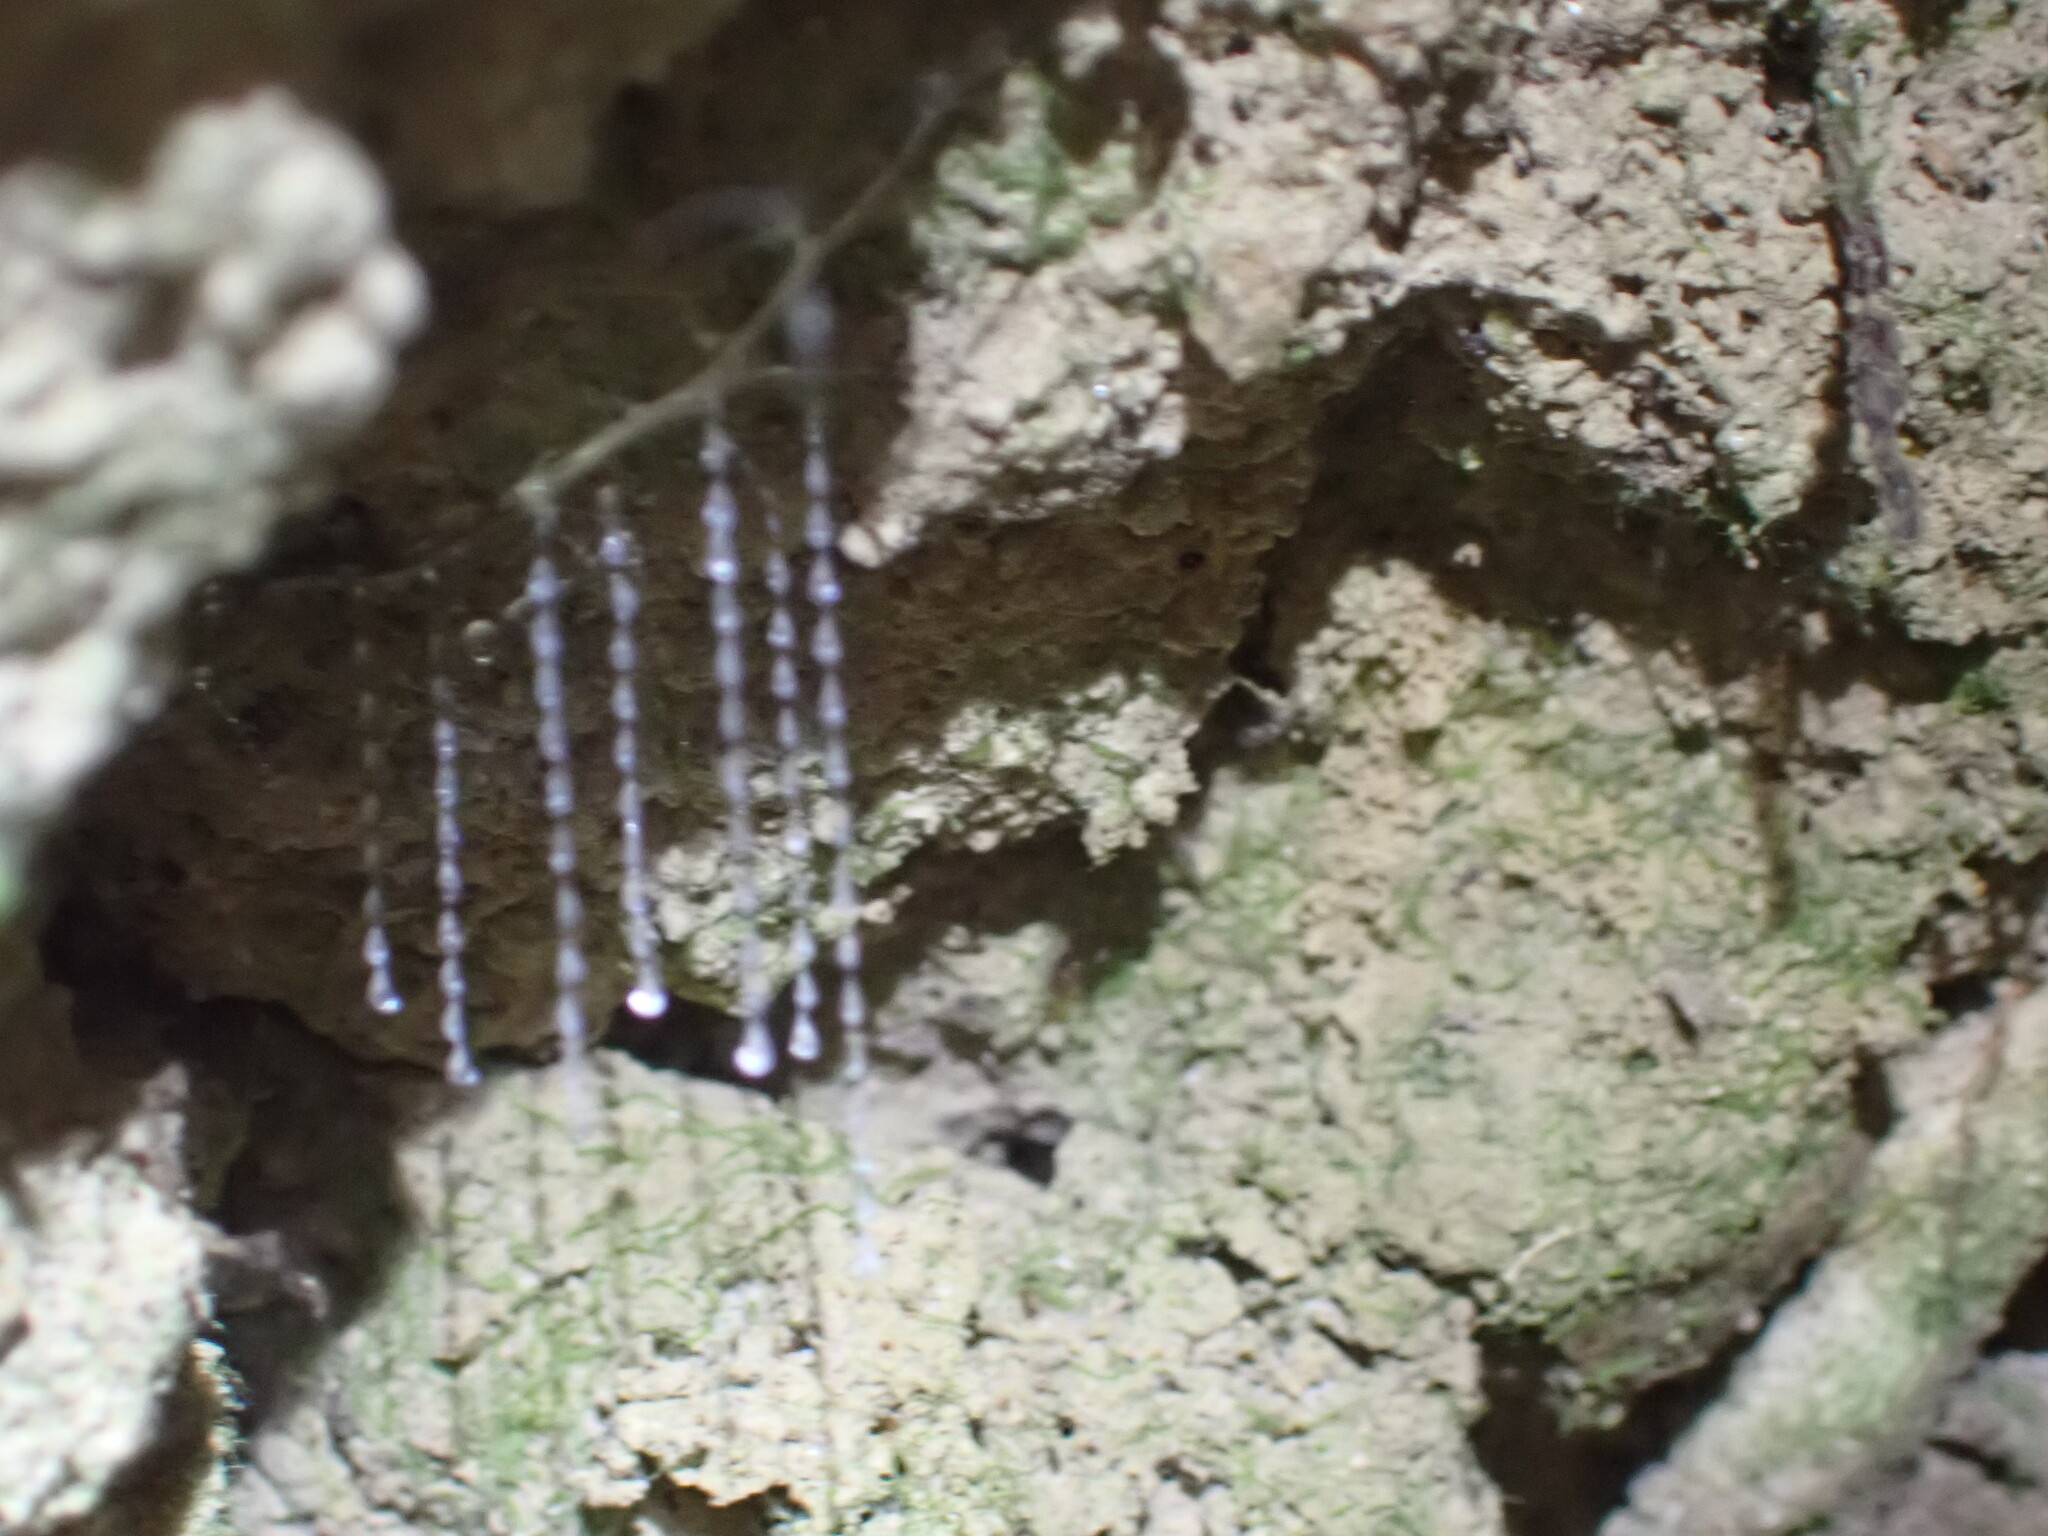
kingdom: Animalia
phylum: Arthropoda
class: Insecta
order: Diptera
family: Keroplatidae
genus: Arachnocampa
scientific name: Arachnocampa luminosa
